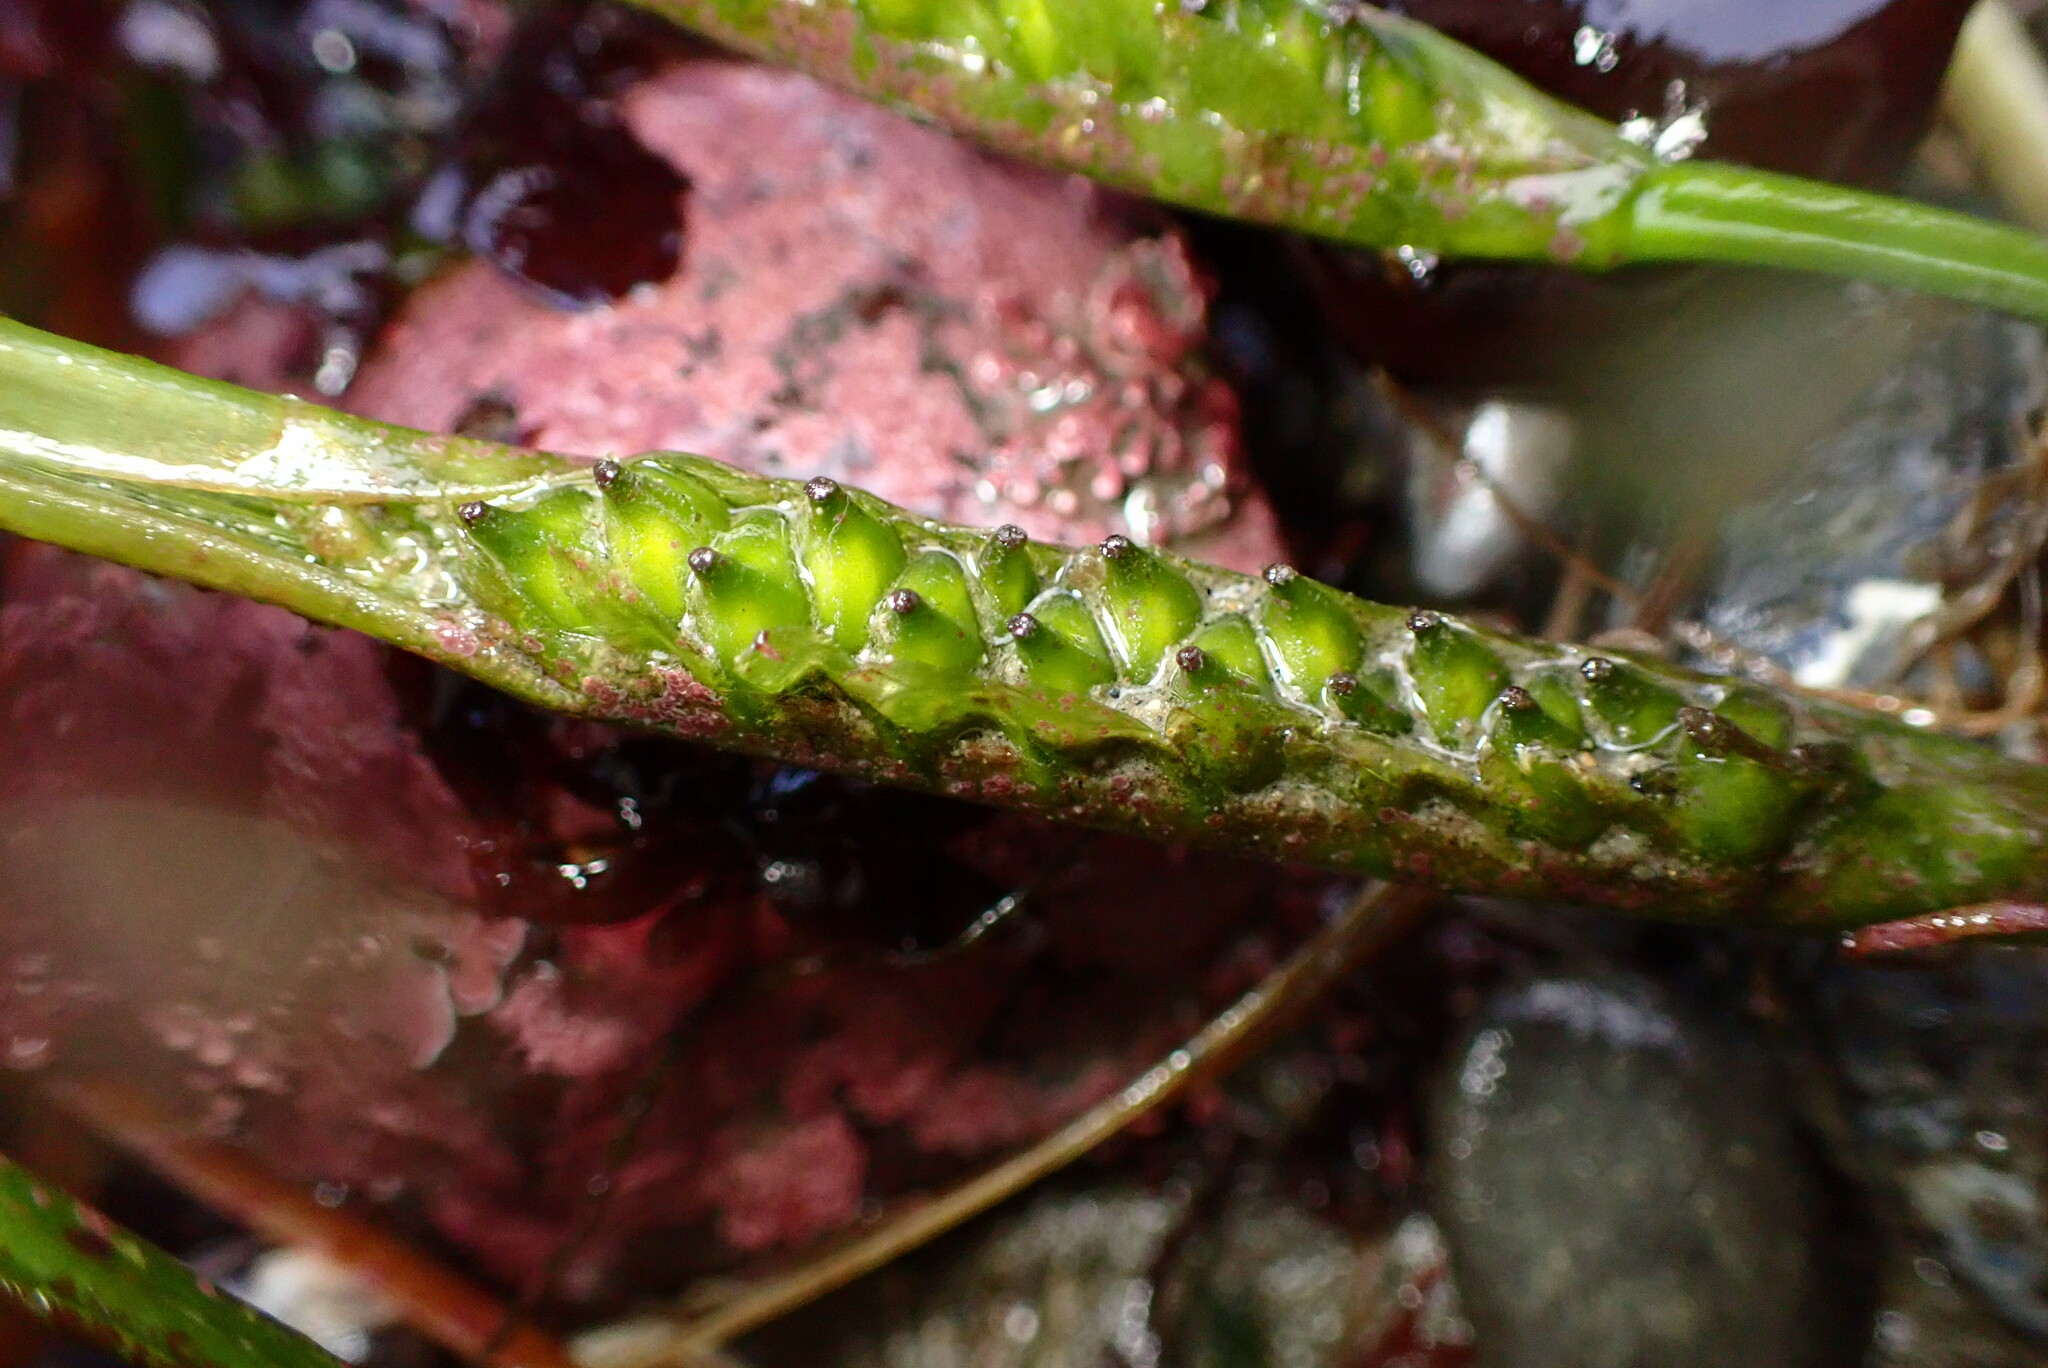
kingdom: Plantae
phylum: Tracheophyta
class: Liliopsida
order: Alismatales
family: Zosteraceae
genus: Phyllospadix
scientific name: Phyllospadix scouleri
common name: Species code: ps
